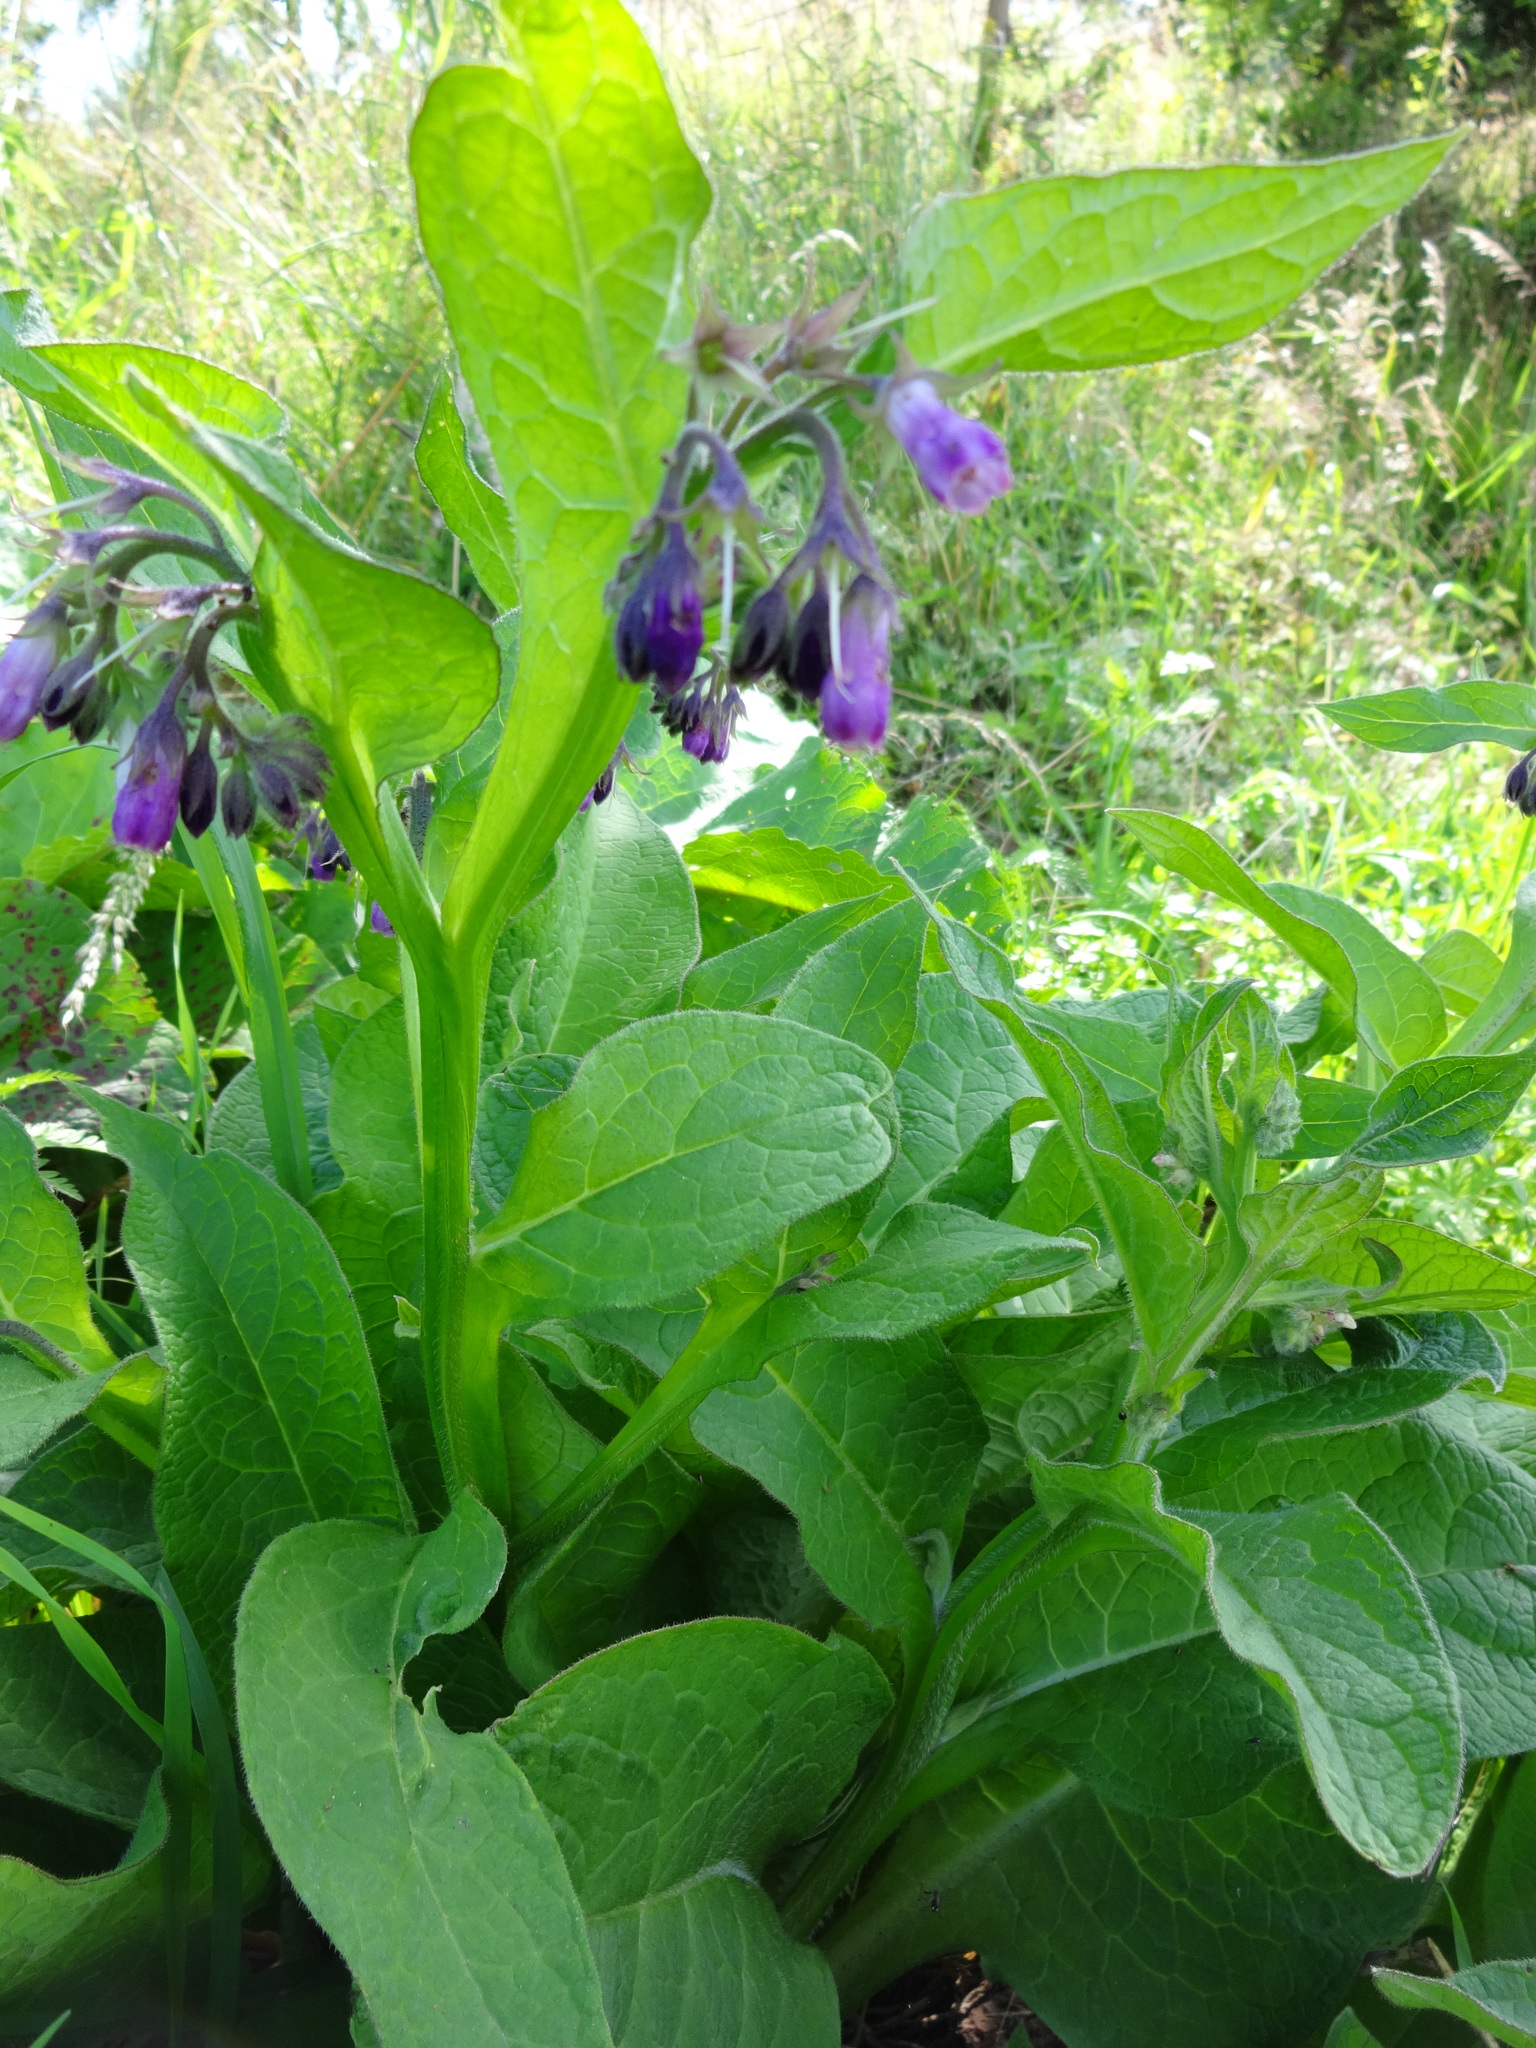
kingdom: Plantae
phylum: Tracheophyta
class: Magnoliopsida
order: Boraginales
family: Boraginaceae
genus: Symphytum
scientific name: Symphytum officinale
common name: Common comfrey
